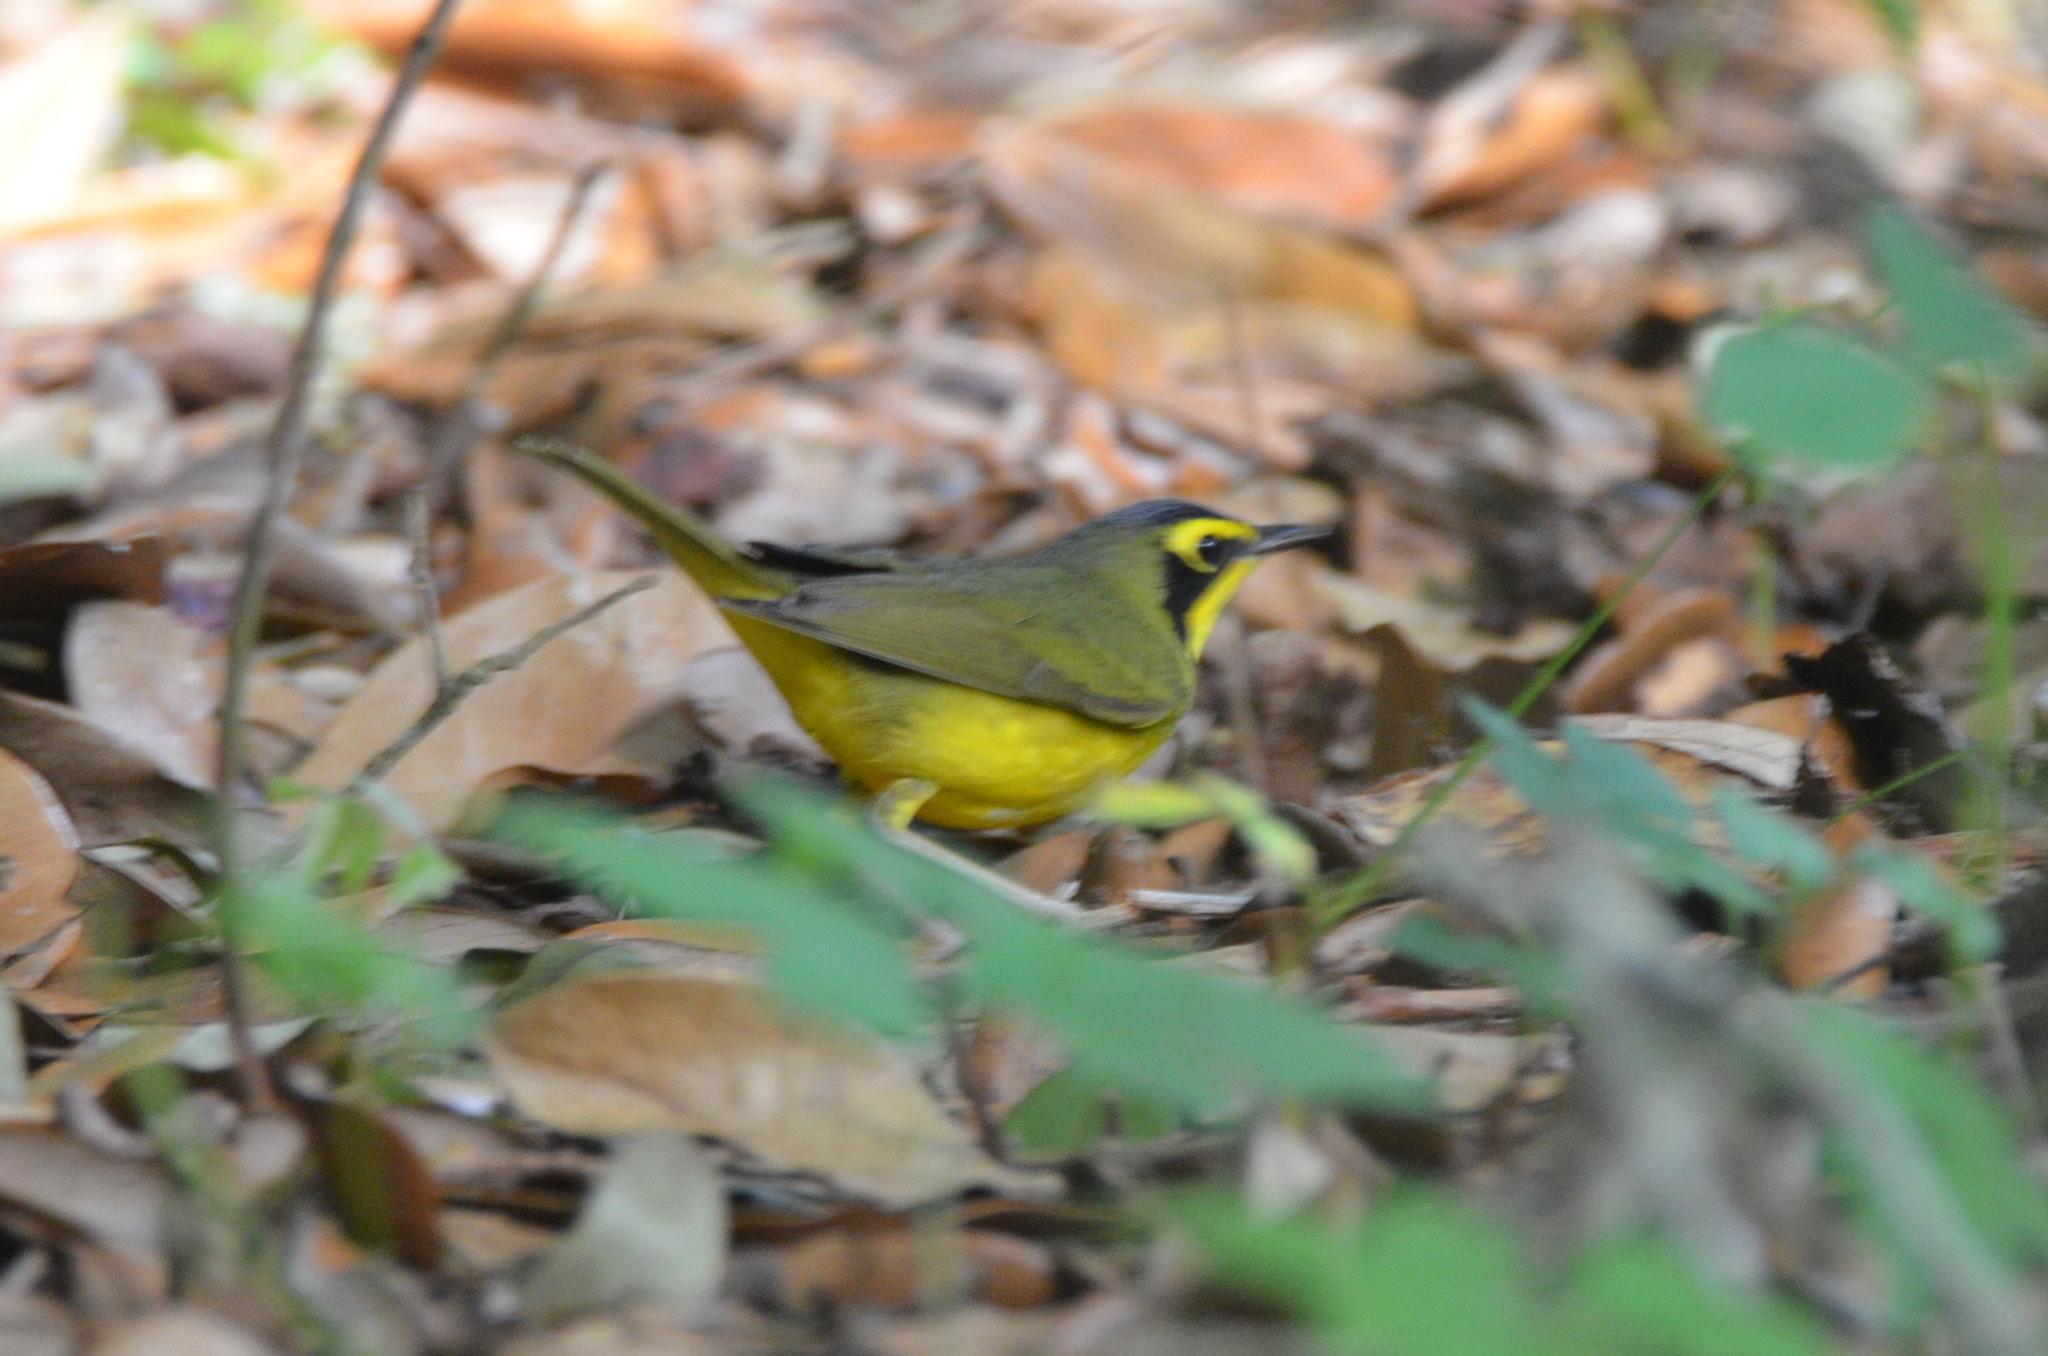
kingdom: Animalia
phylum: Chordata
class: Aves
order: Passeriformes
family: Parulidae
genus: Geothlypis
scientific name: Geothlypis formosa
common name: Kentucky warbler
